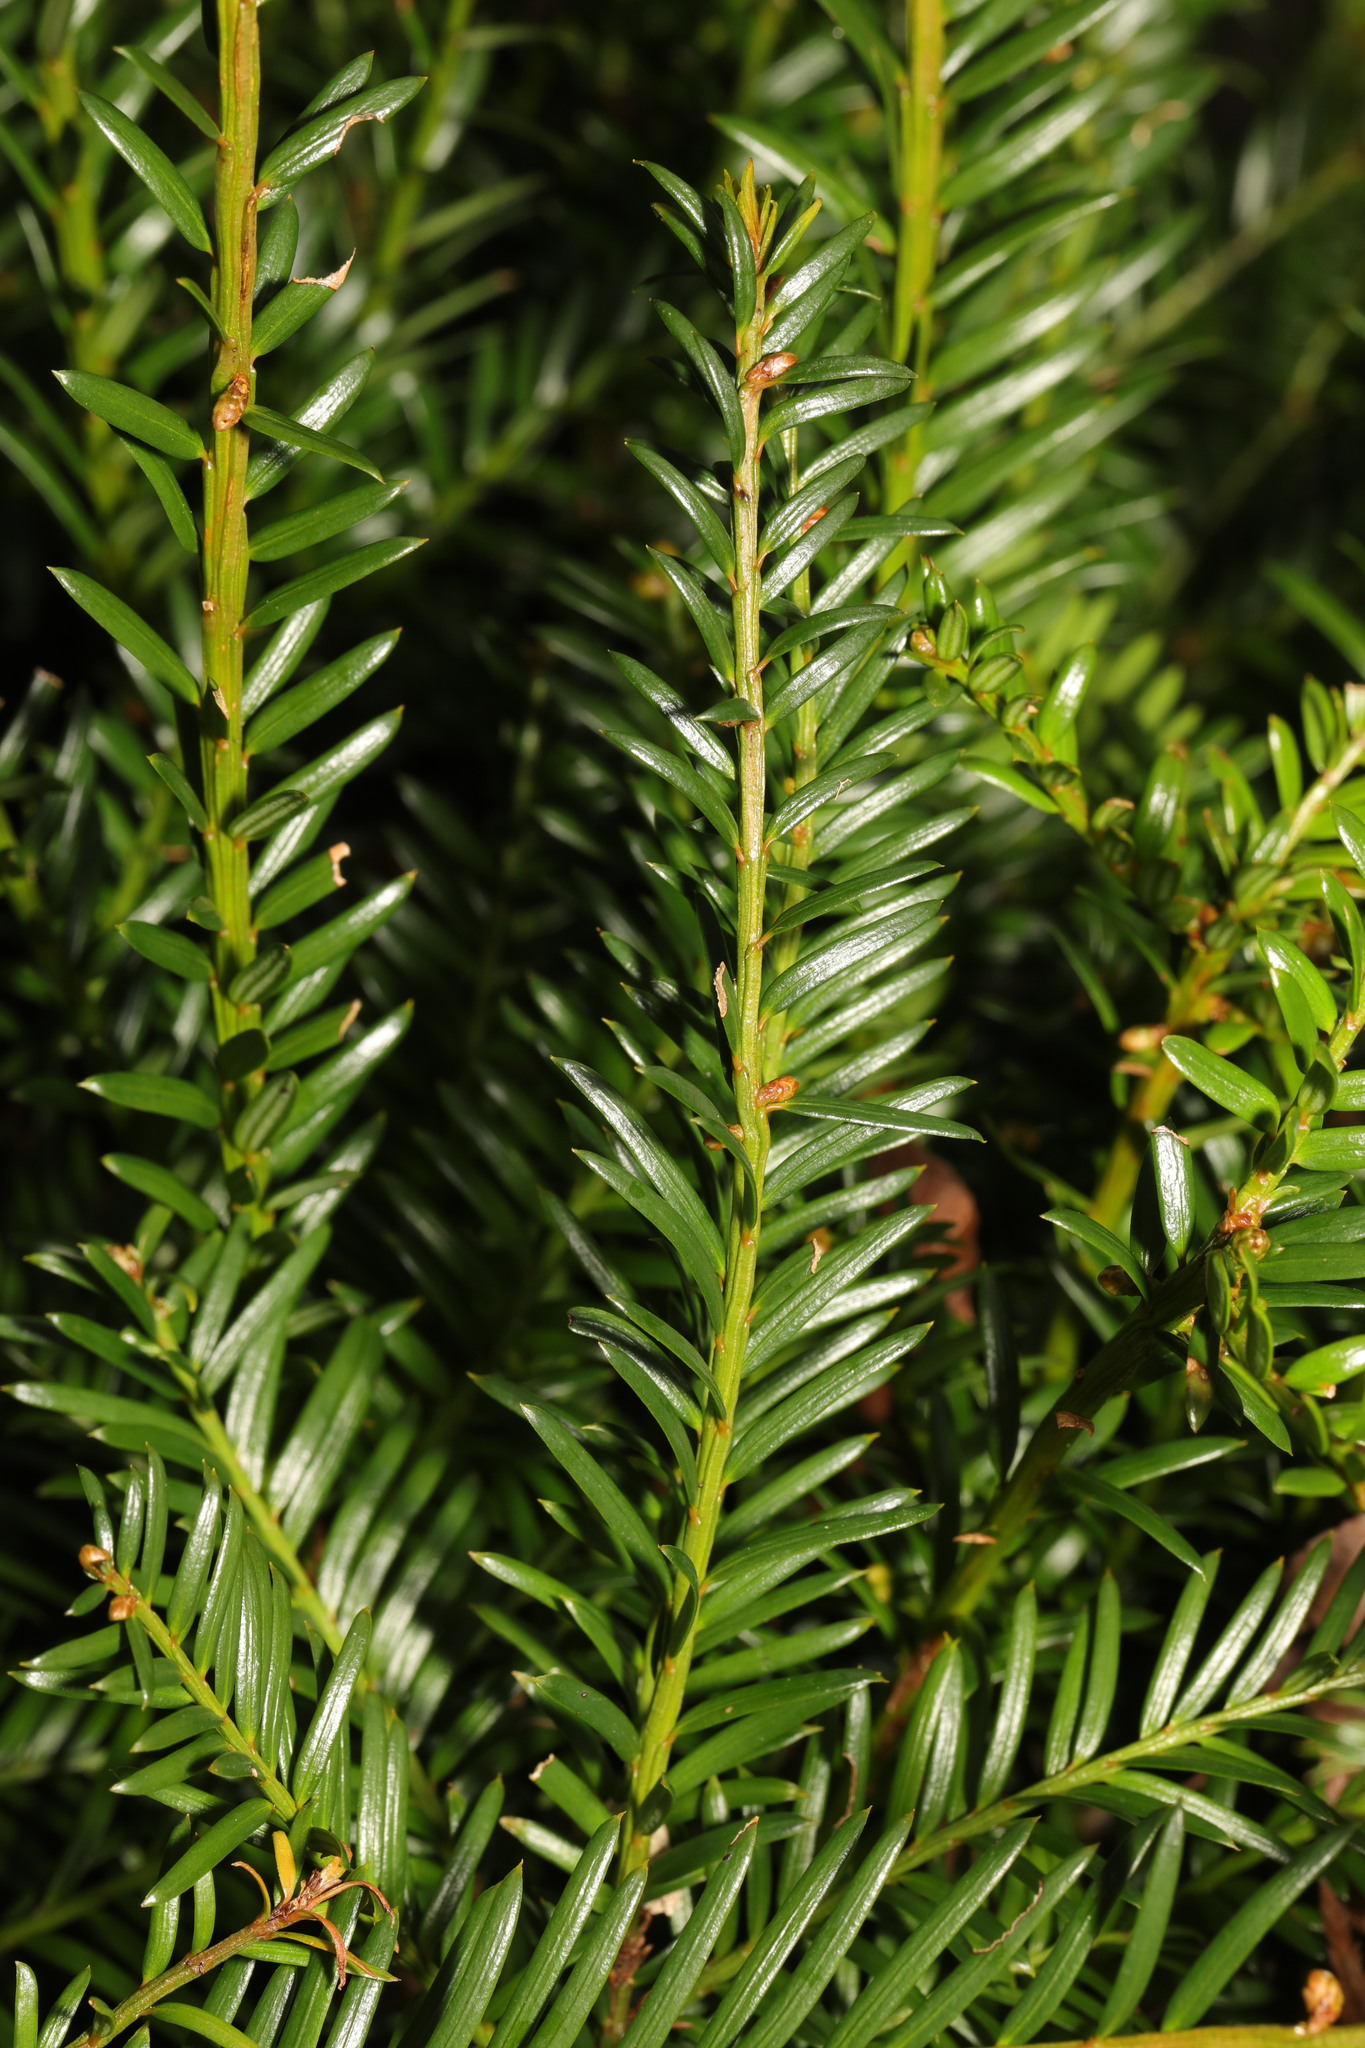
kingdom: Plantae
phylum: Tracheophyta
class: Pinopsida
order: Pinales
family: Taxaceae
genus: Taxus
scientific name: Taxus baccata
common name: Yew
